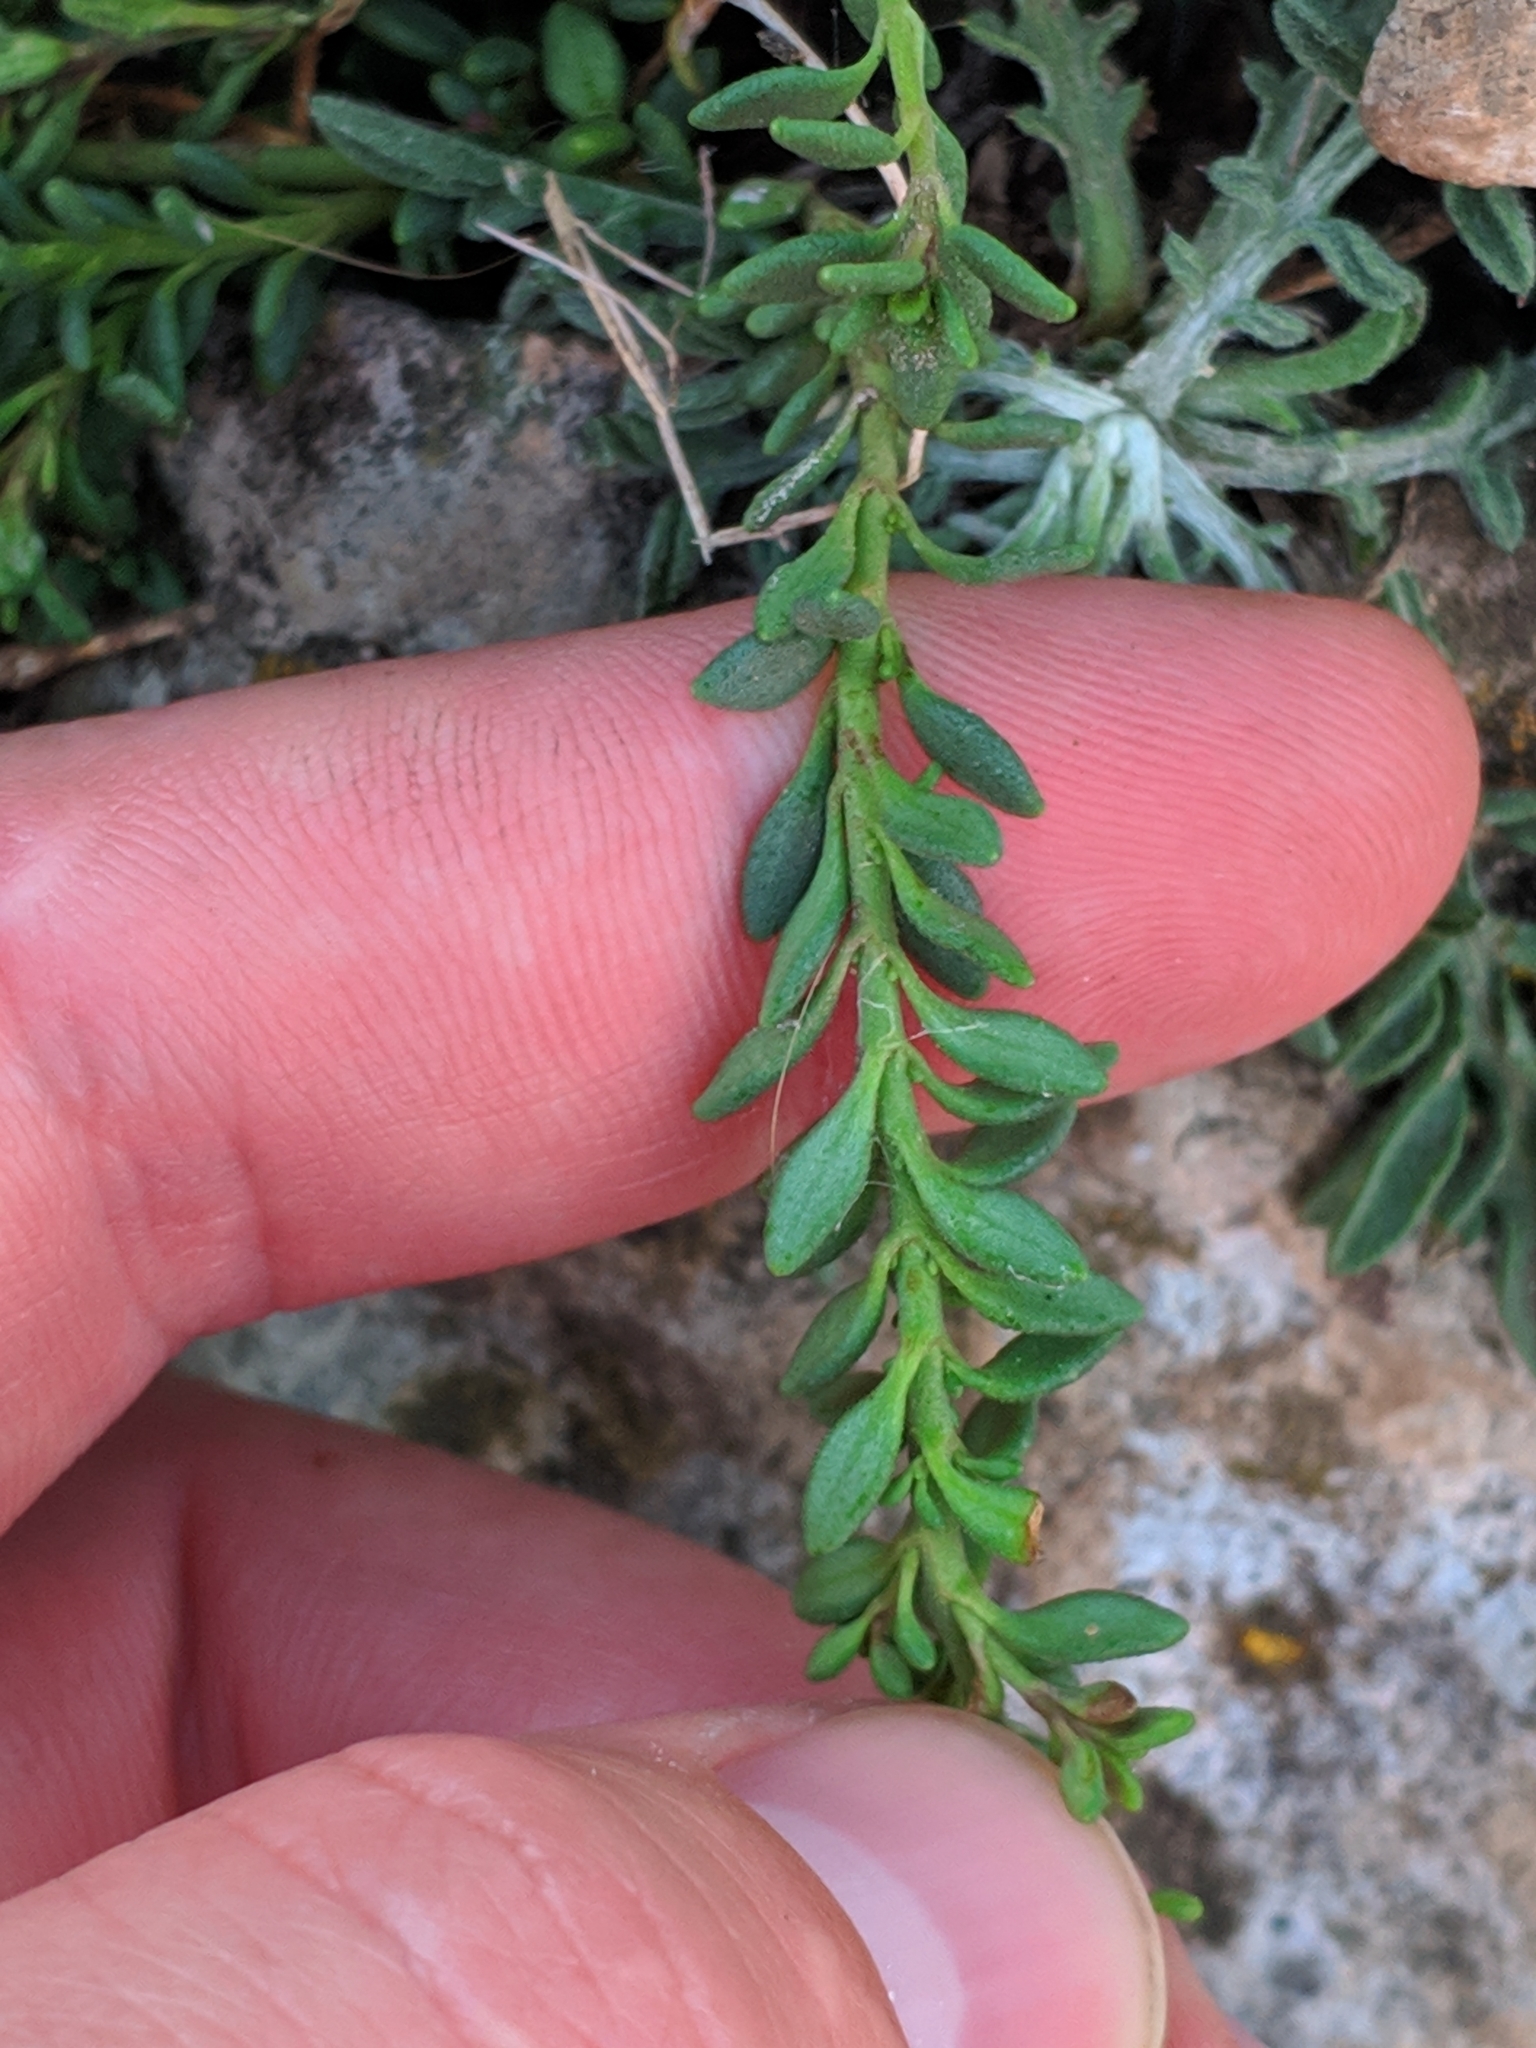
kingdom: Plantae
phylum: Tracheophyta
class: Magnoliopsida
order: Lamiales
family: Plantaginaceae
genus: Chaenorhinum
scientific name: Chaenorhinum origanifolium
